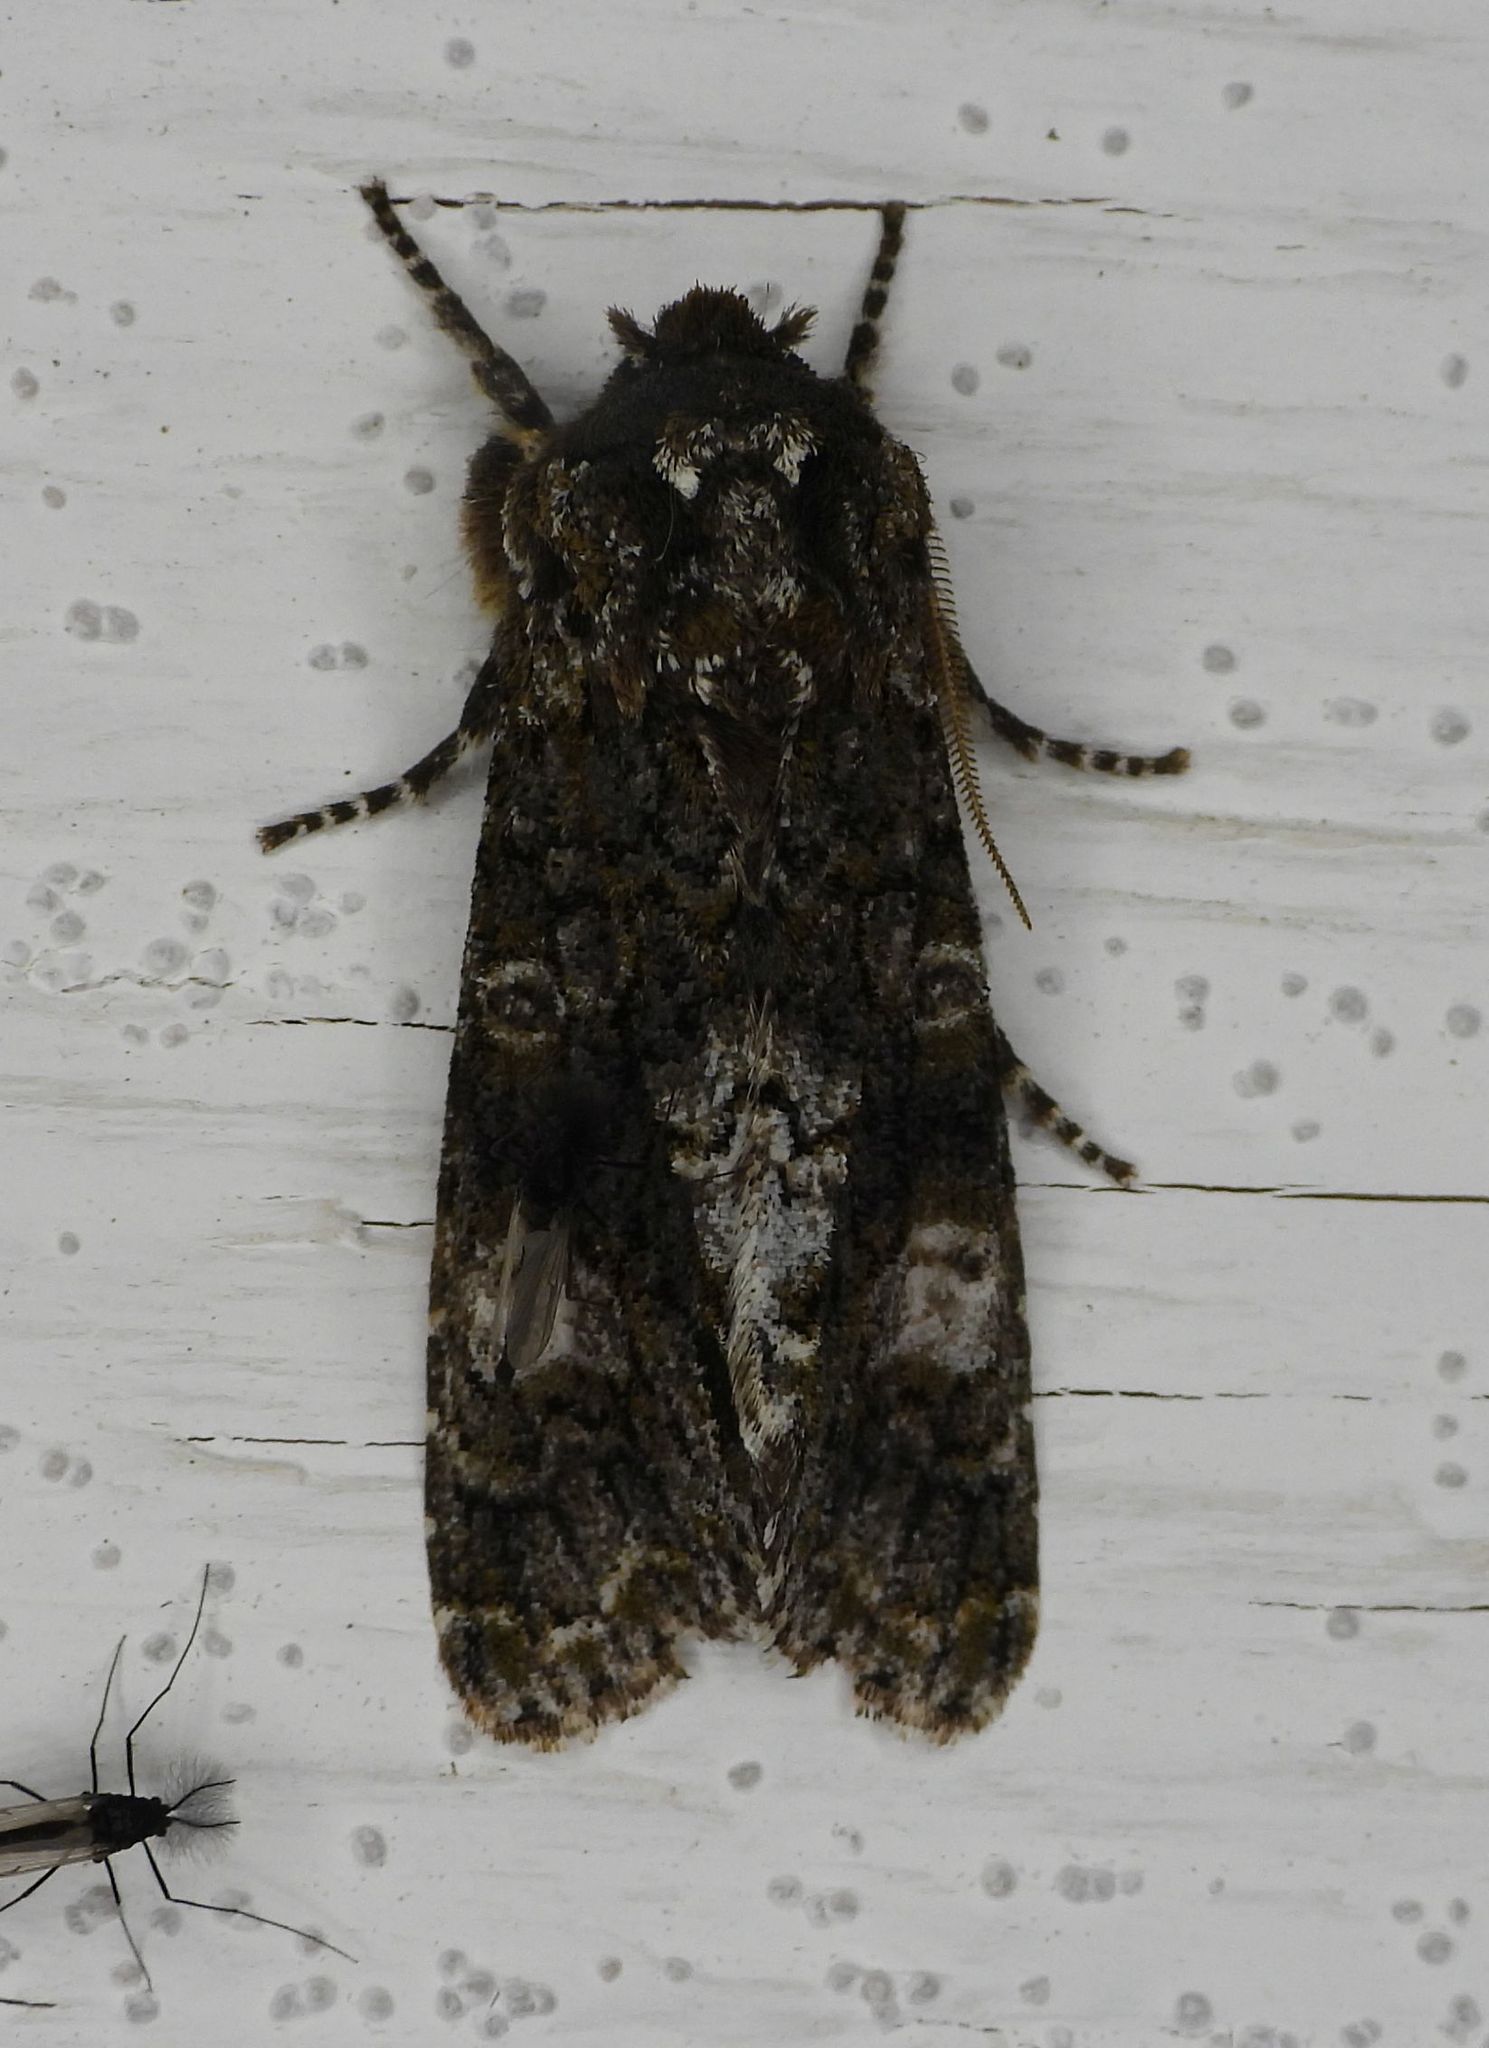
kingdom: Animalia
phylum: Arthropoda
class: Insecta
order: Lepidoptera
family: Noctuidae
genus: Psaphida
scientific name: Psaphida grotei
